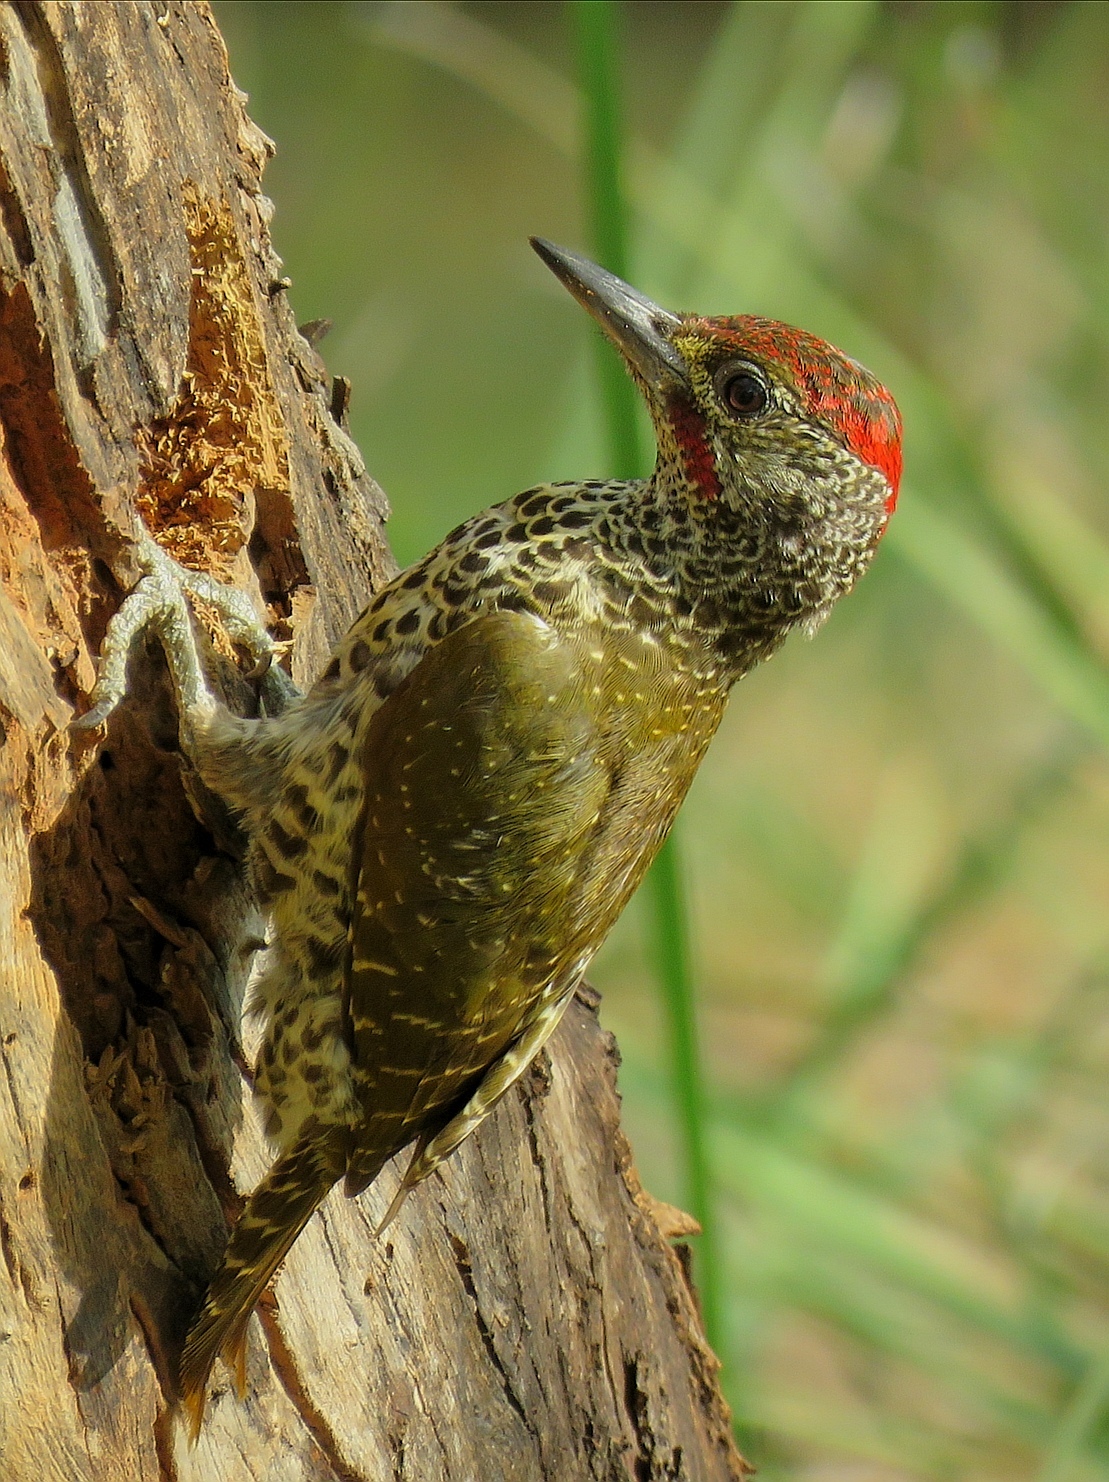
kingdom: Animalia
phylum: Chordata
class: Aves
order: Piciformes
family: Picidae
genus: Campethera
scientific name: Campethera notata
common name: Knysna woodpecker
